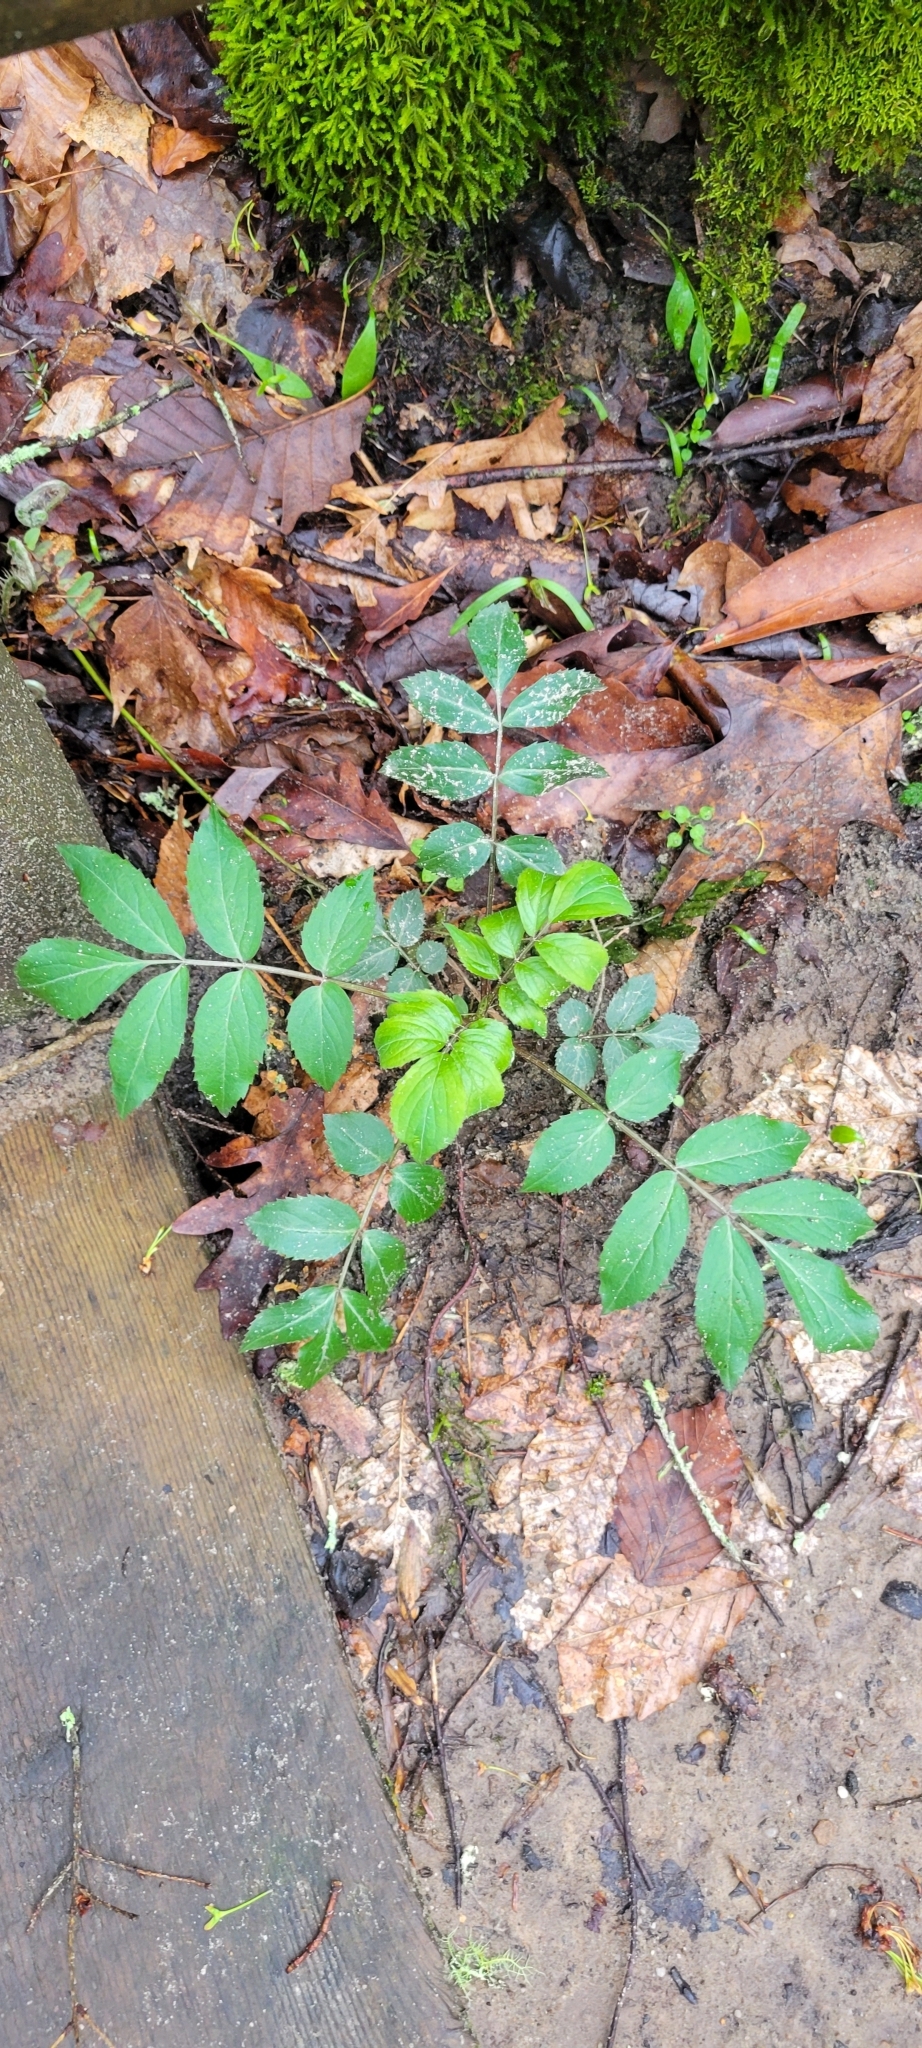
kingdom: Plantae
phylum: Tracheophyta
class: Magnoliopsida
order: Dipsacales
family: Viburnaceae
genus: Sambucus
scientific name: Sambucus canadensis
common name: American elder
